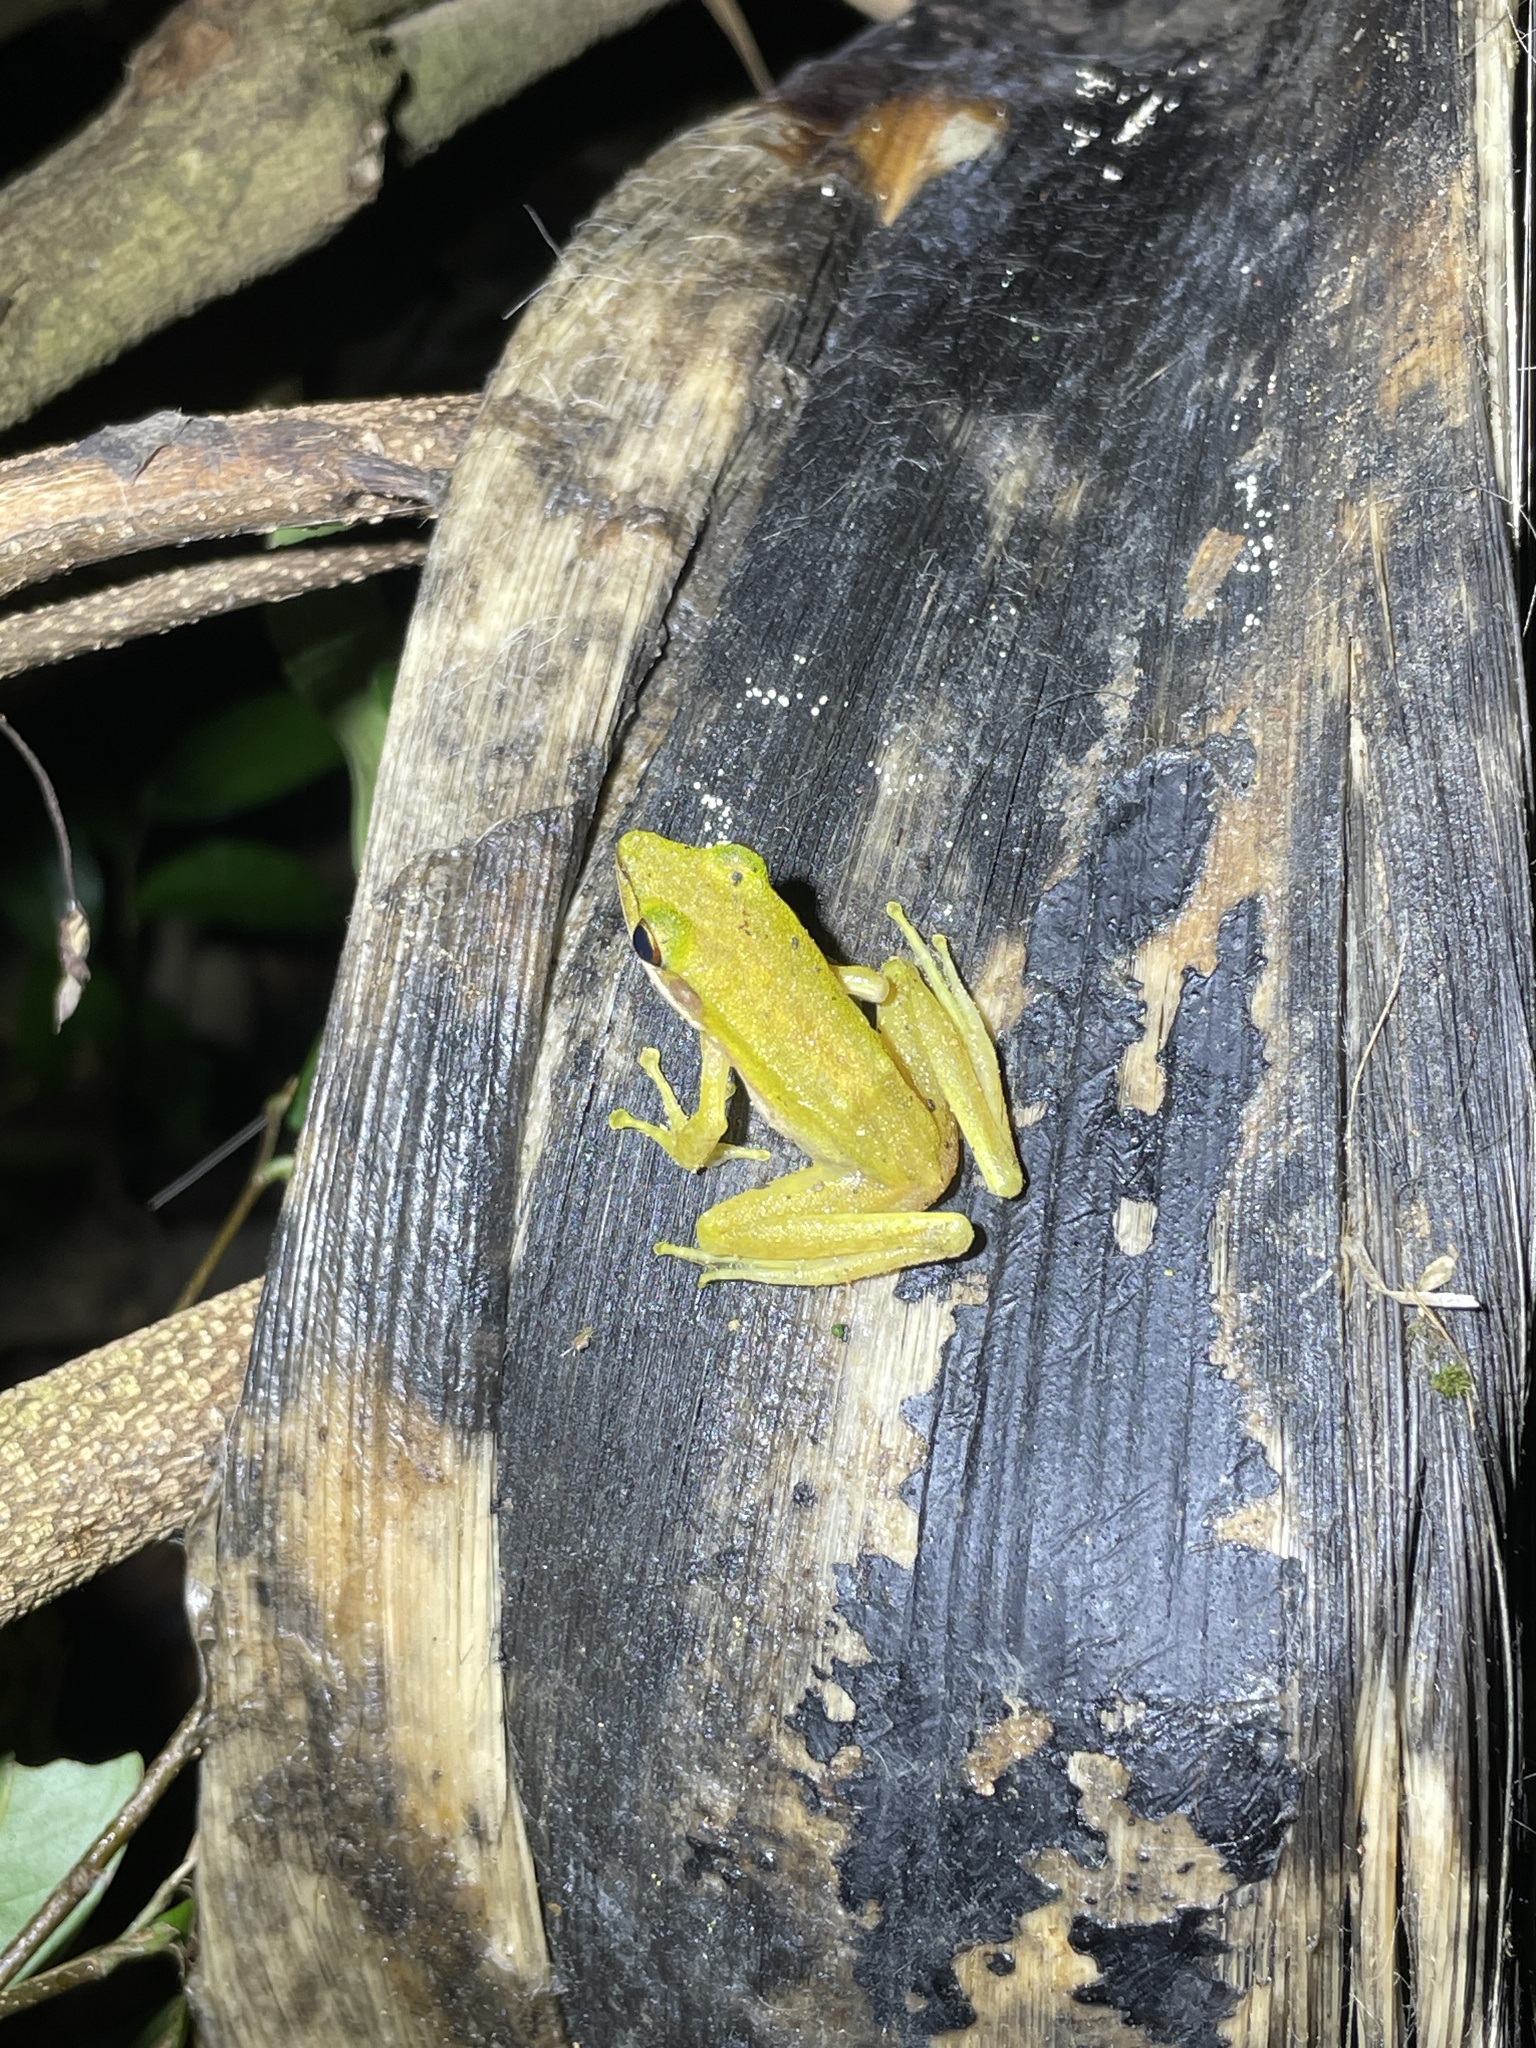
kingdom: Animalia
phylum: Chordata
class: Amphibia
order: Anura
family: Ranidae
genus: Chalcorana
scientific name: Chalcorana eschatia
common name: Tenasserim white-lipped frog
